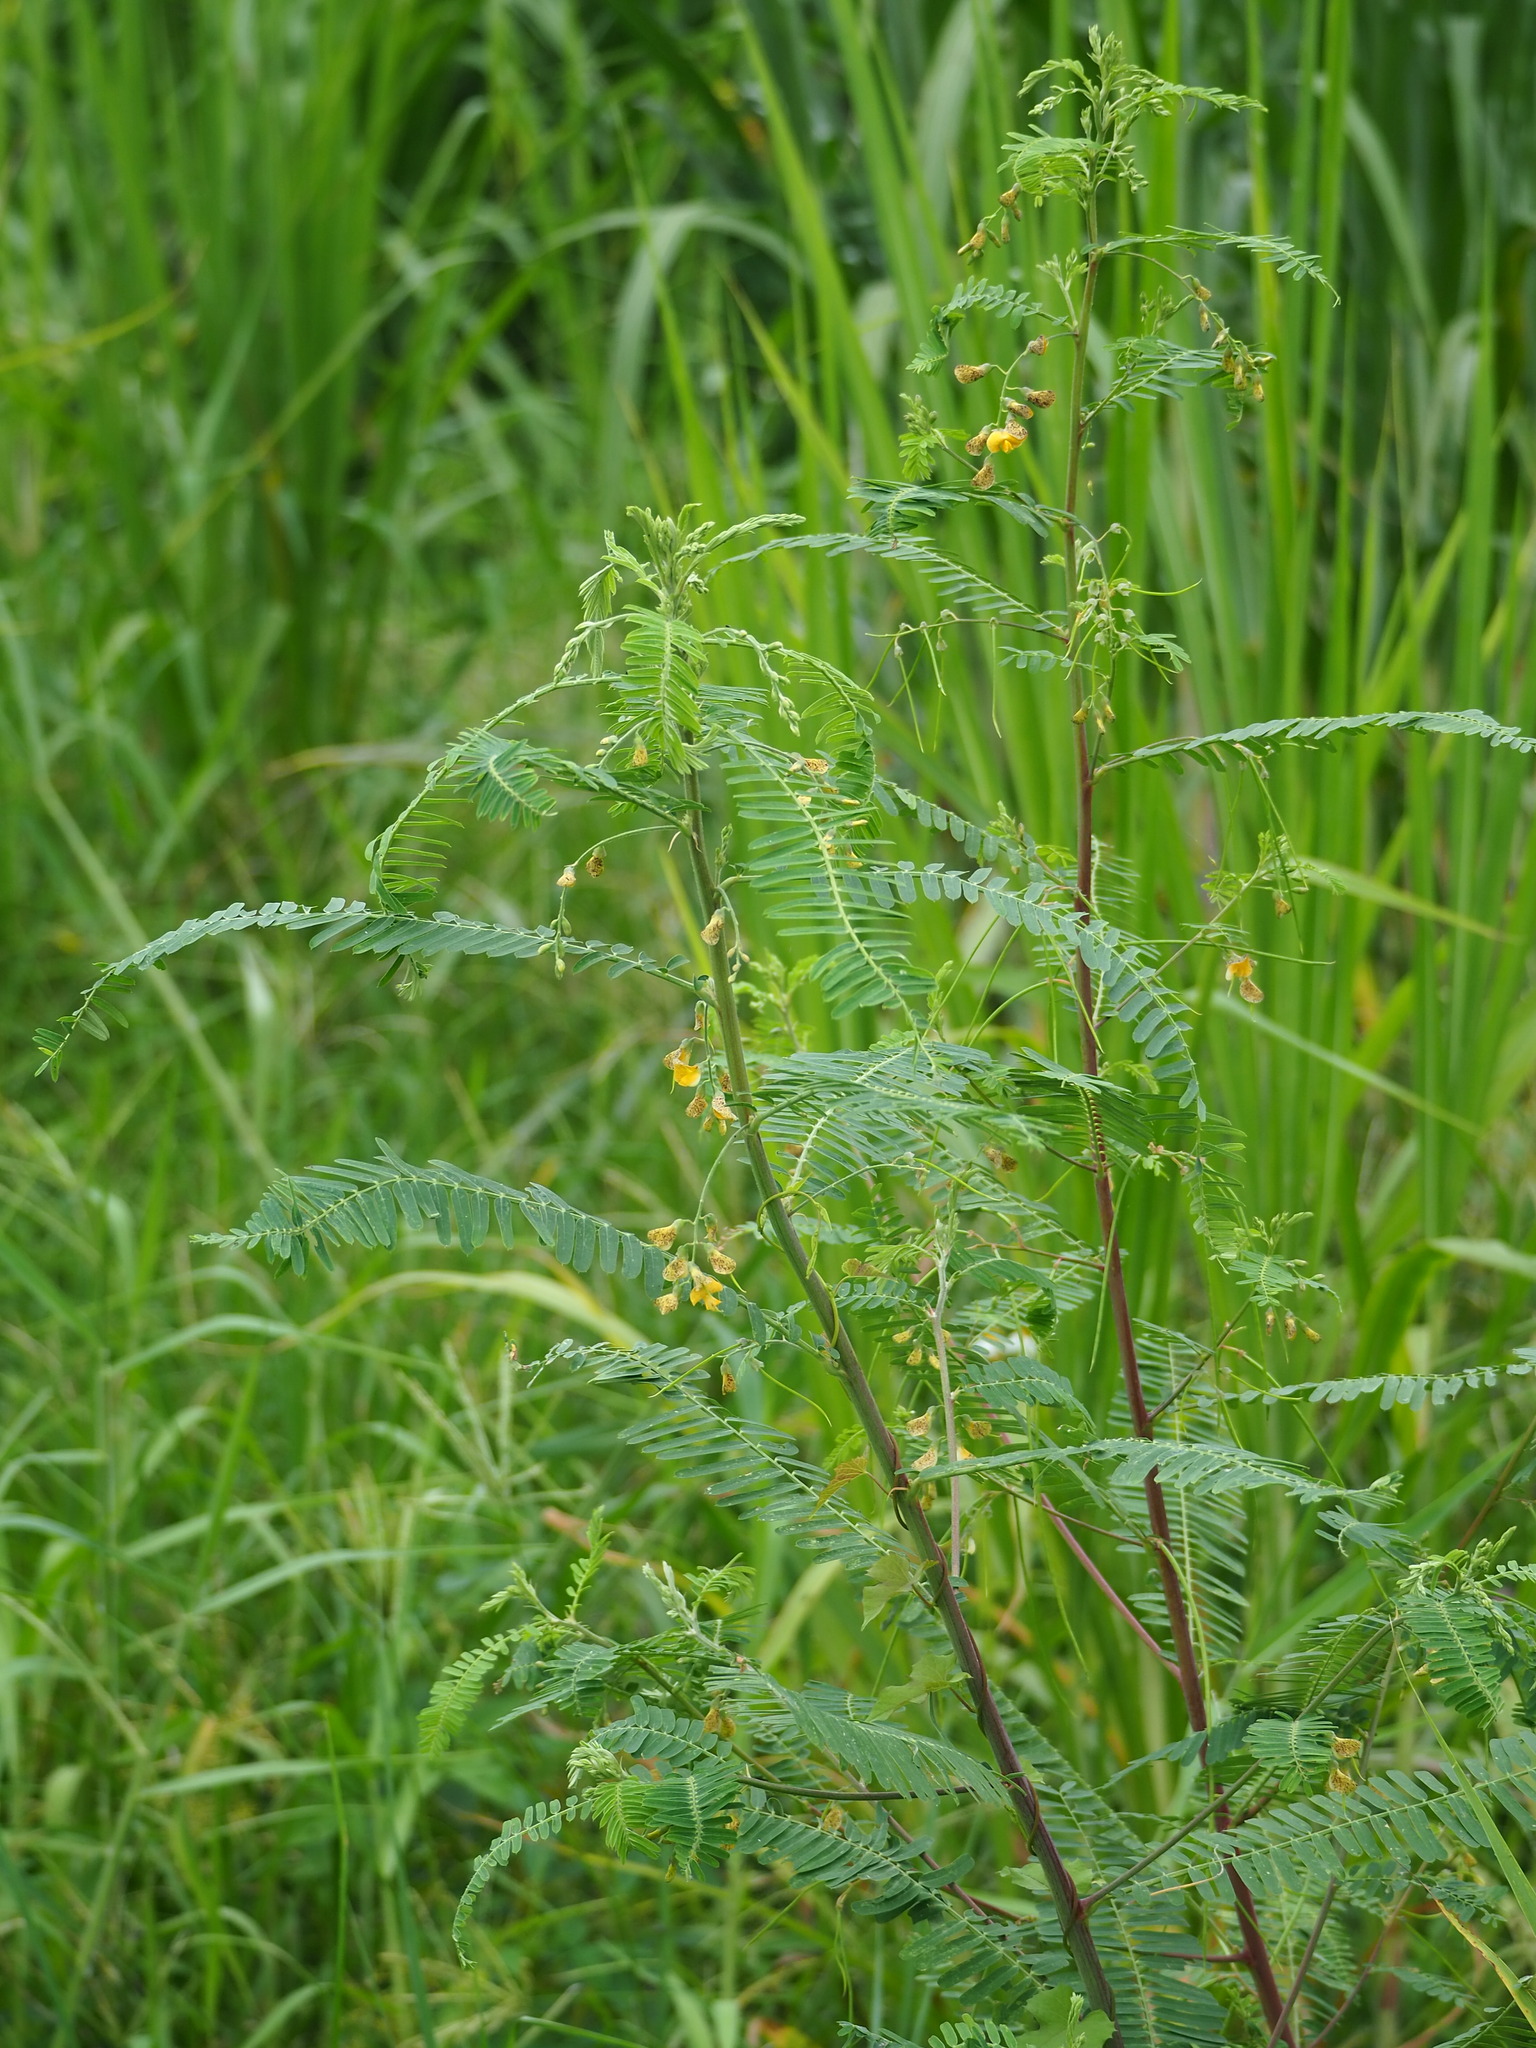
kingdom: Plantae
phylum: Tracheophyta
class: Magnoliopsida
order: Fabales
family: Fabaceae
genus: Sesbania
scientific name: Sesbania cannabina
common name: Canicha
